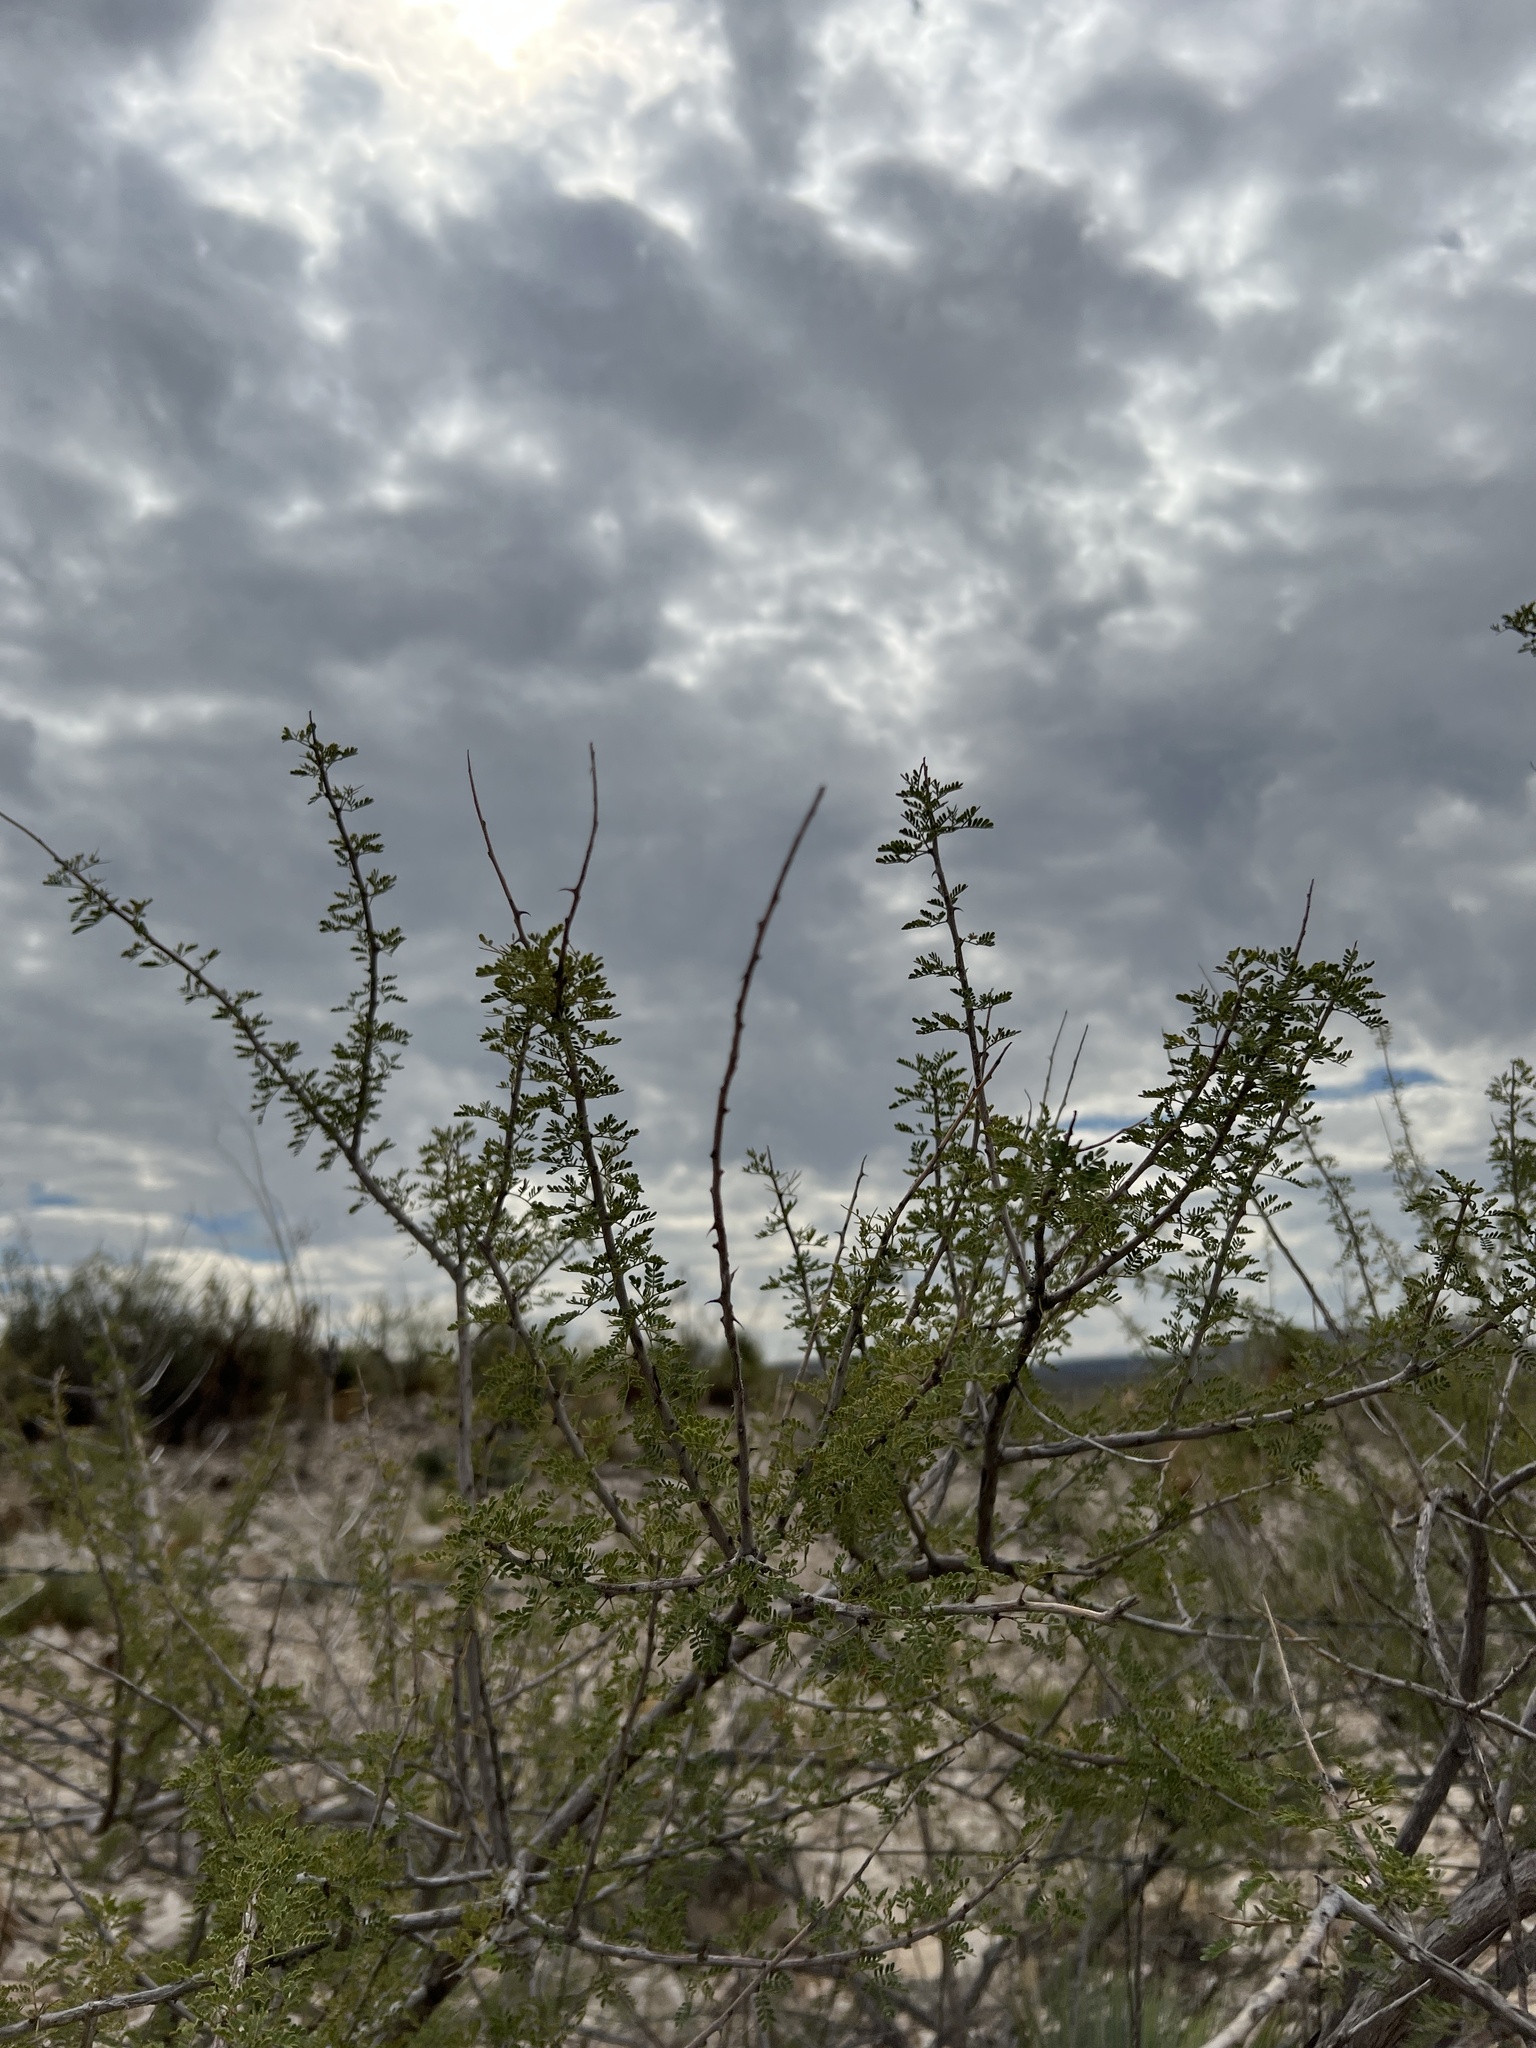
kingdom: Plantae
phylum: Tracheophyta
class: Magnoliopsida
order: Fabales
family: Fabaceae
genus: Senegalia
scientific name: Senegalia greggii
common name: Texas-mimosa
